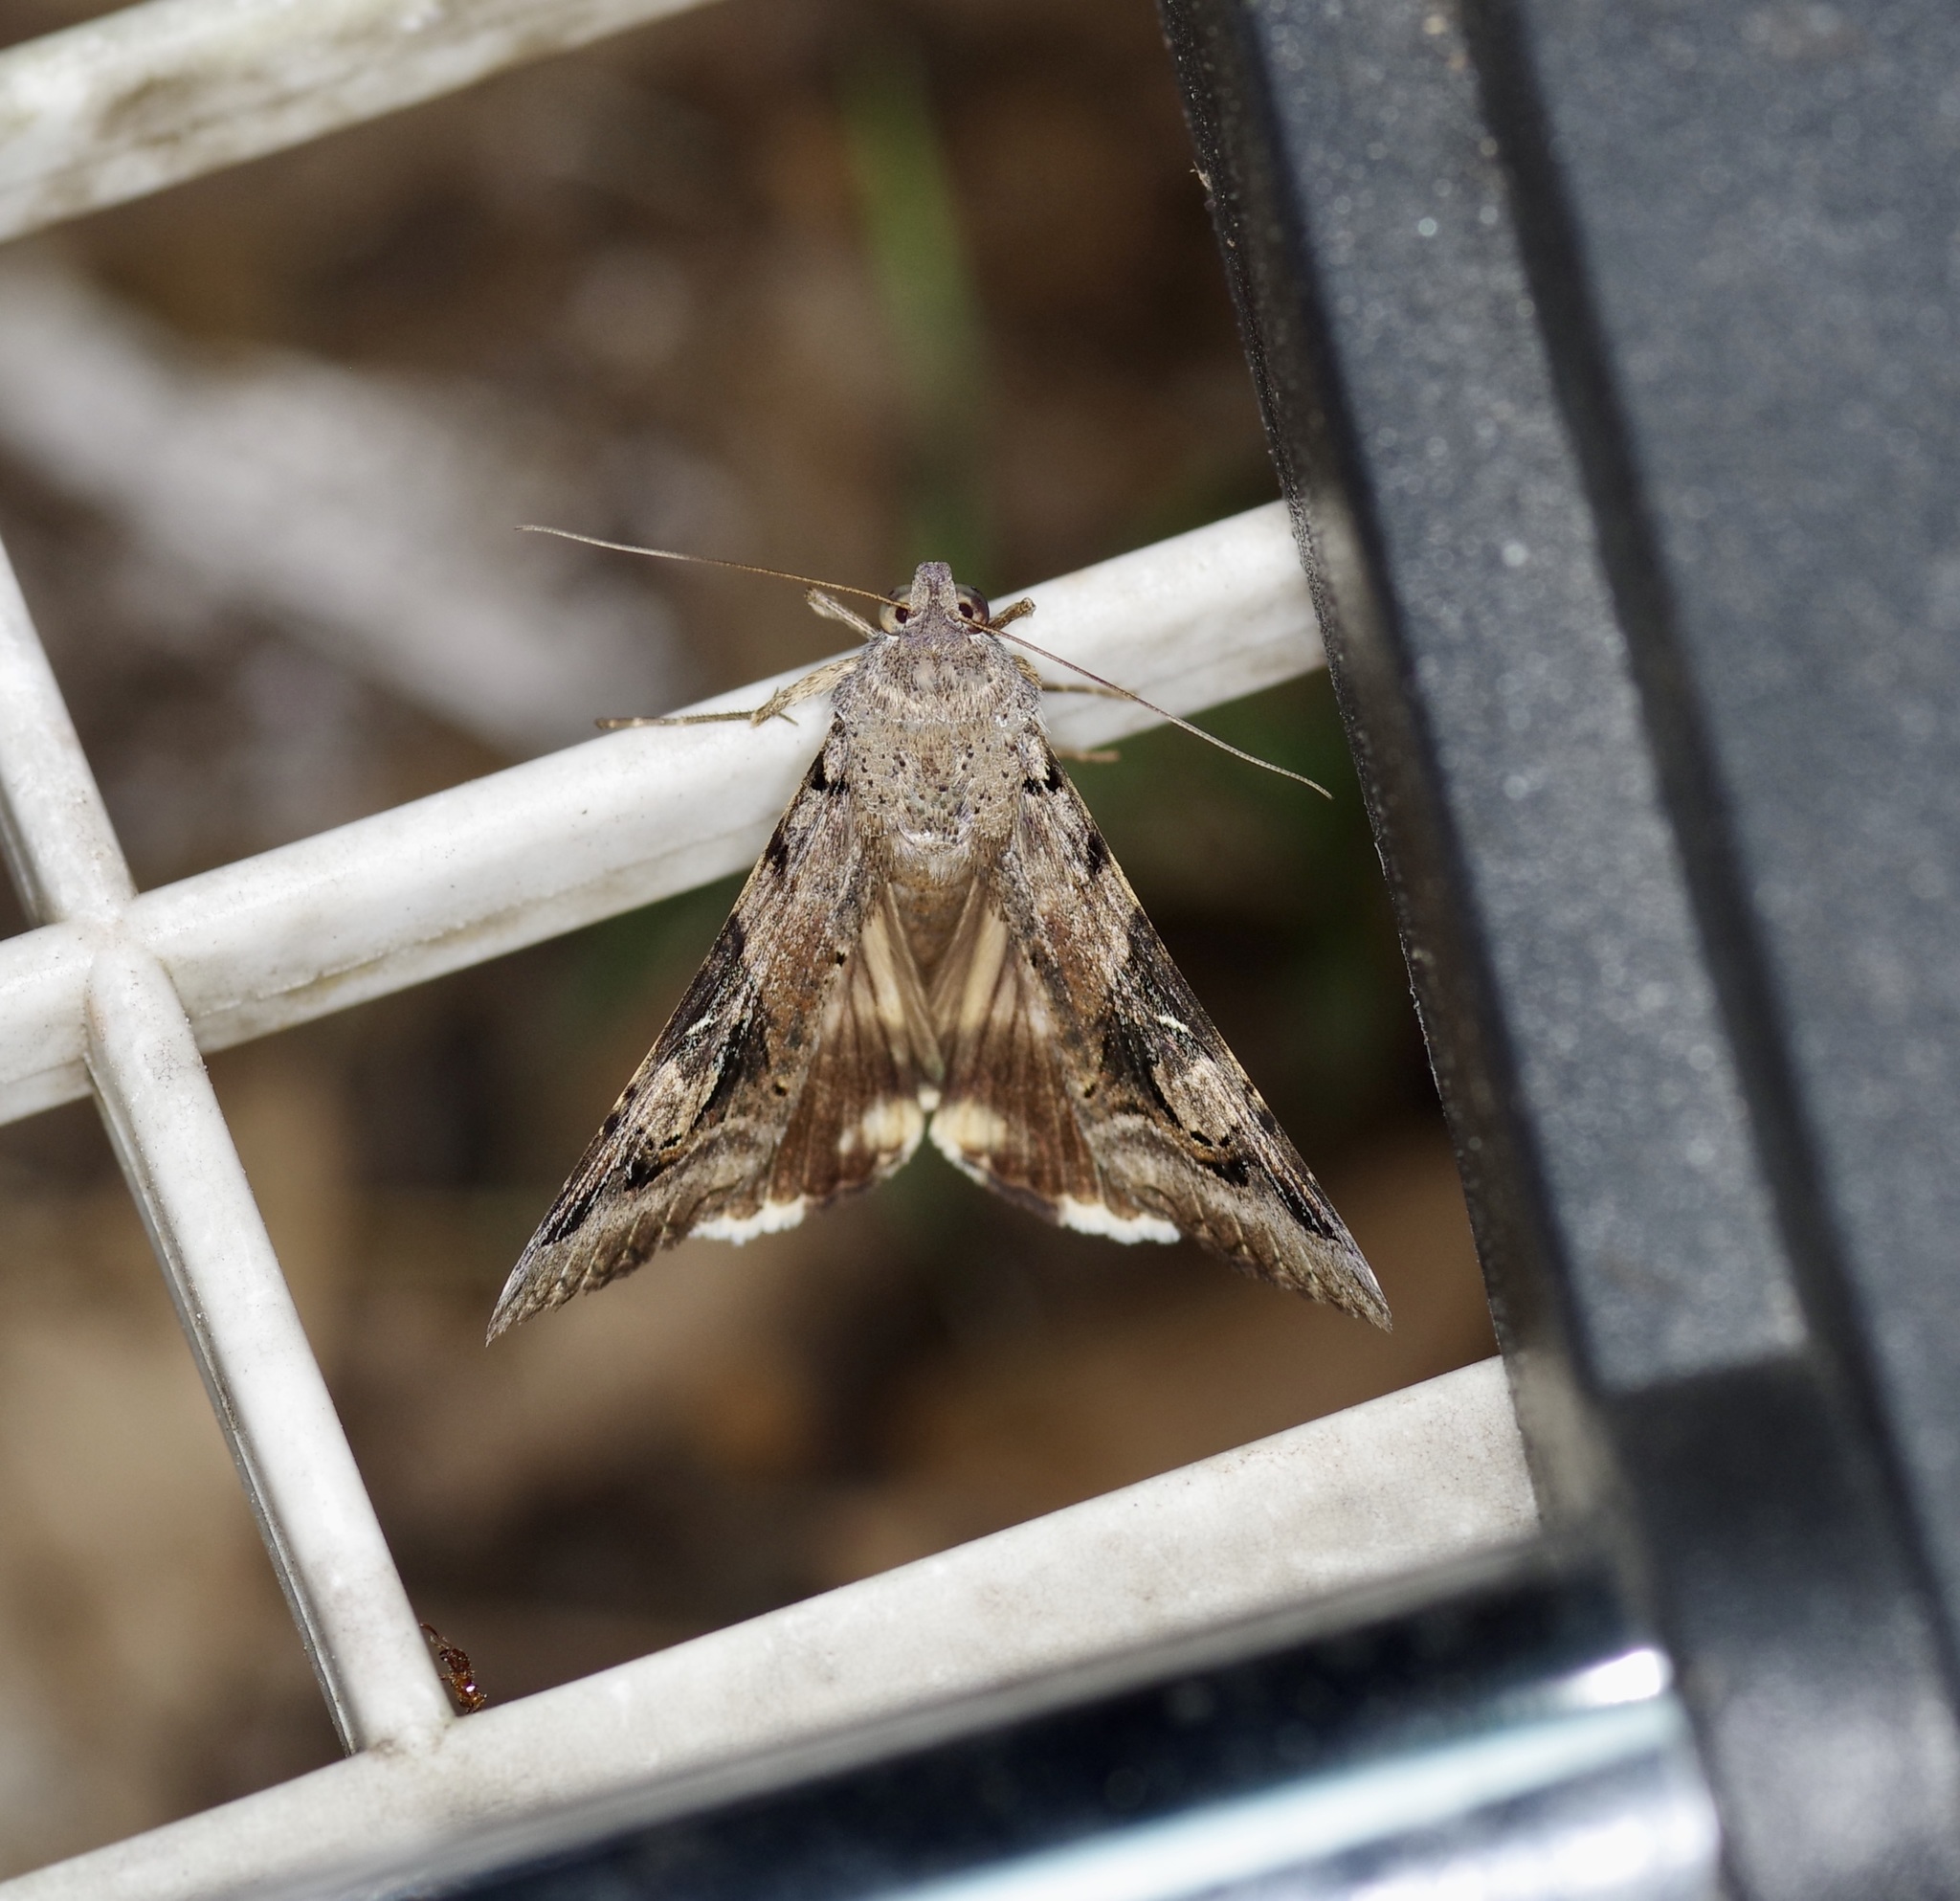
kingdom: Animalia
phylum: Arthropoda
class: Insecta
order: Lepidoptera
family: Erebidae
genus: Melipotis
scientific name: Melipotis indomita
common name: Moth
